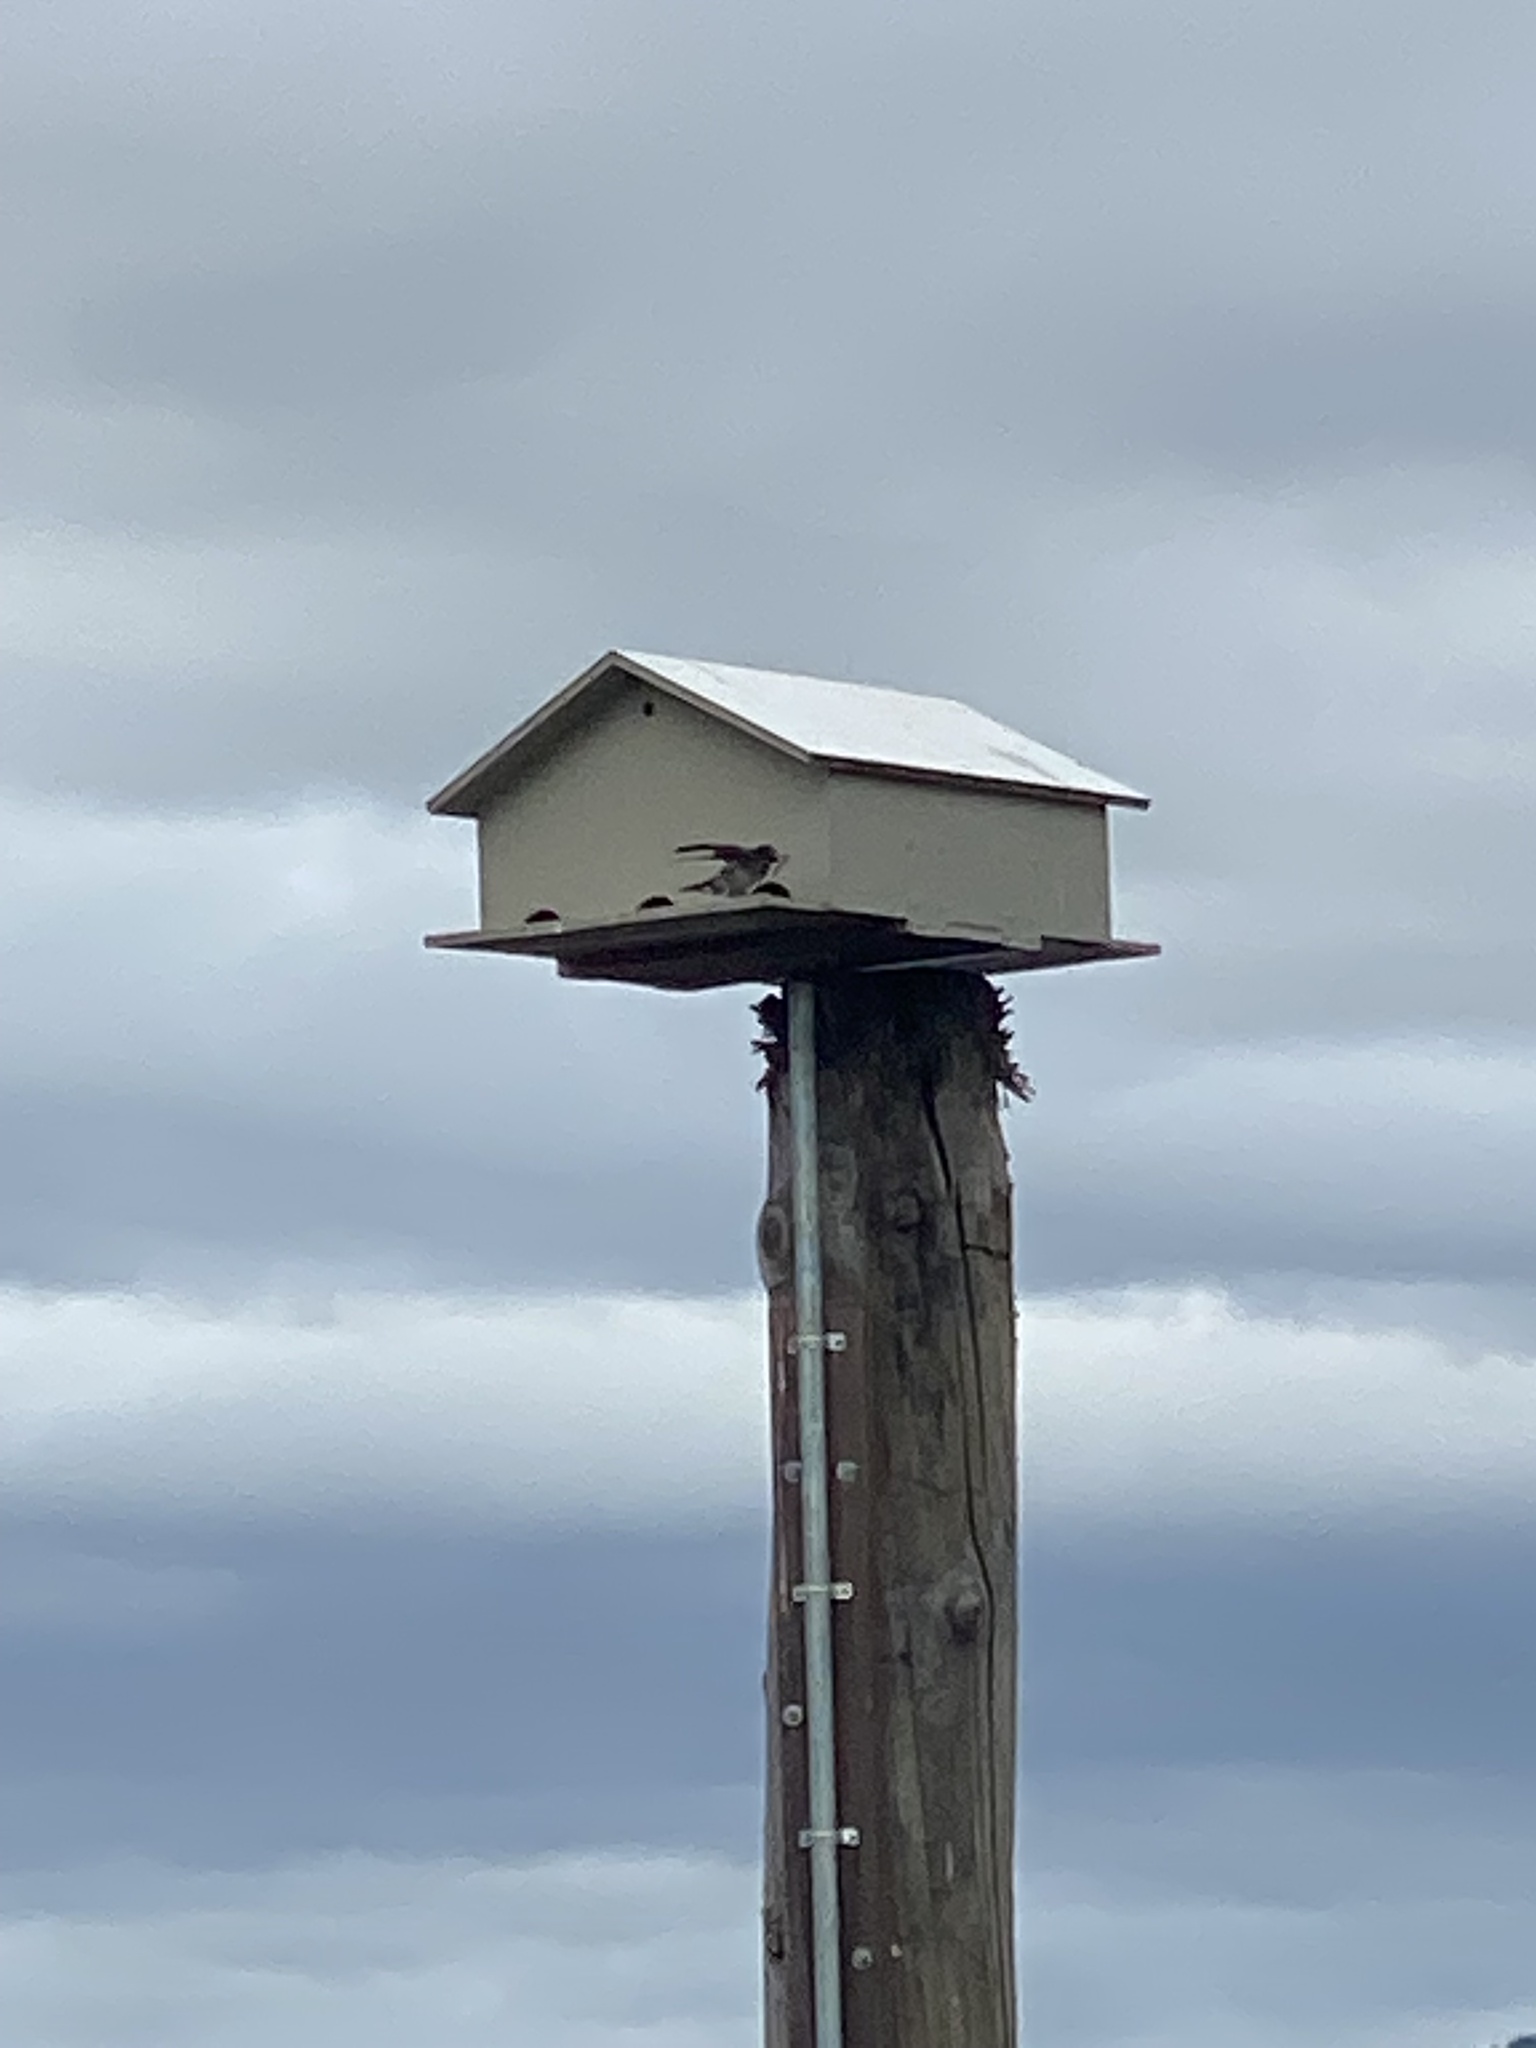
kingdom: Animalia
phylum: Chordata
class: Aves
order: Passeriformes
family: Hirundinidae
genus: Progne
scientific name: Progne subis
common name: Purple martin
